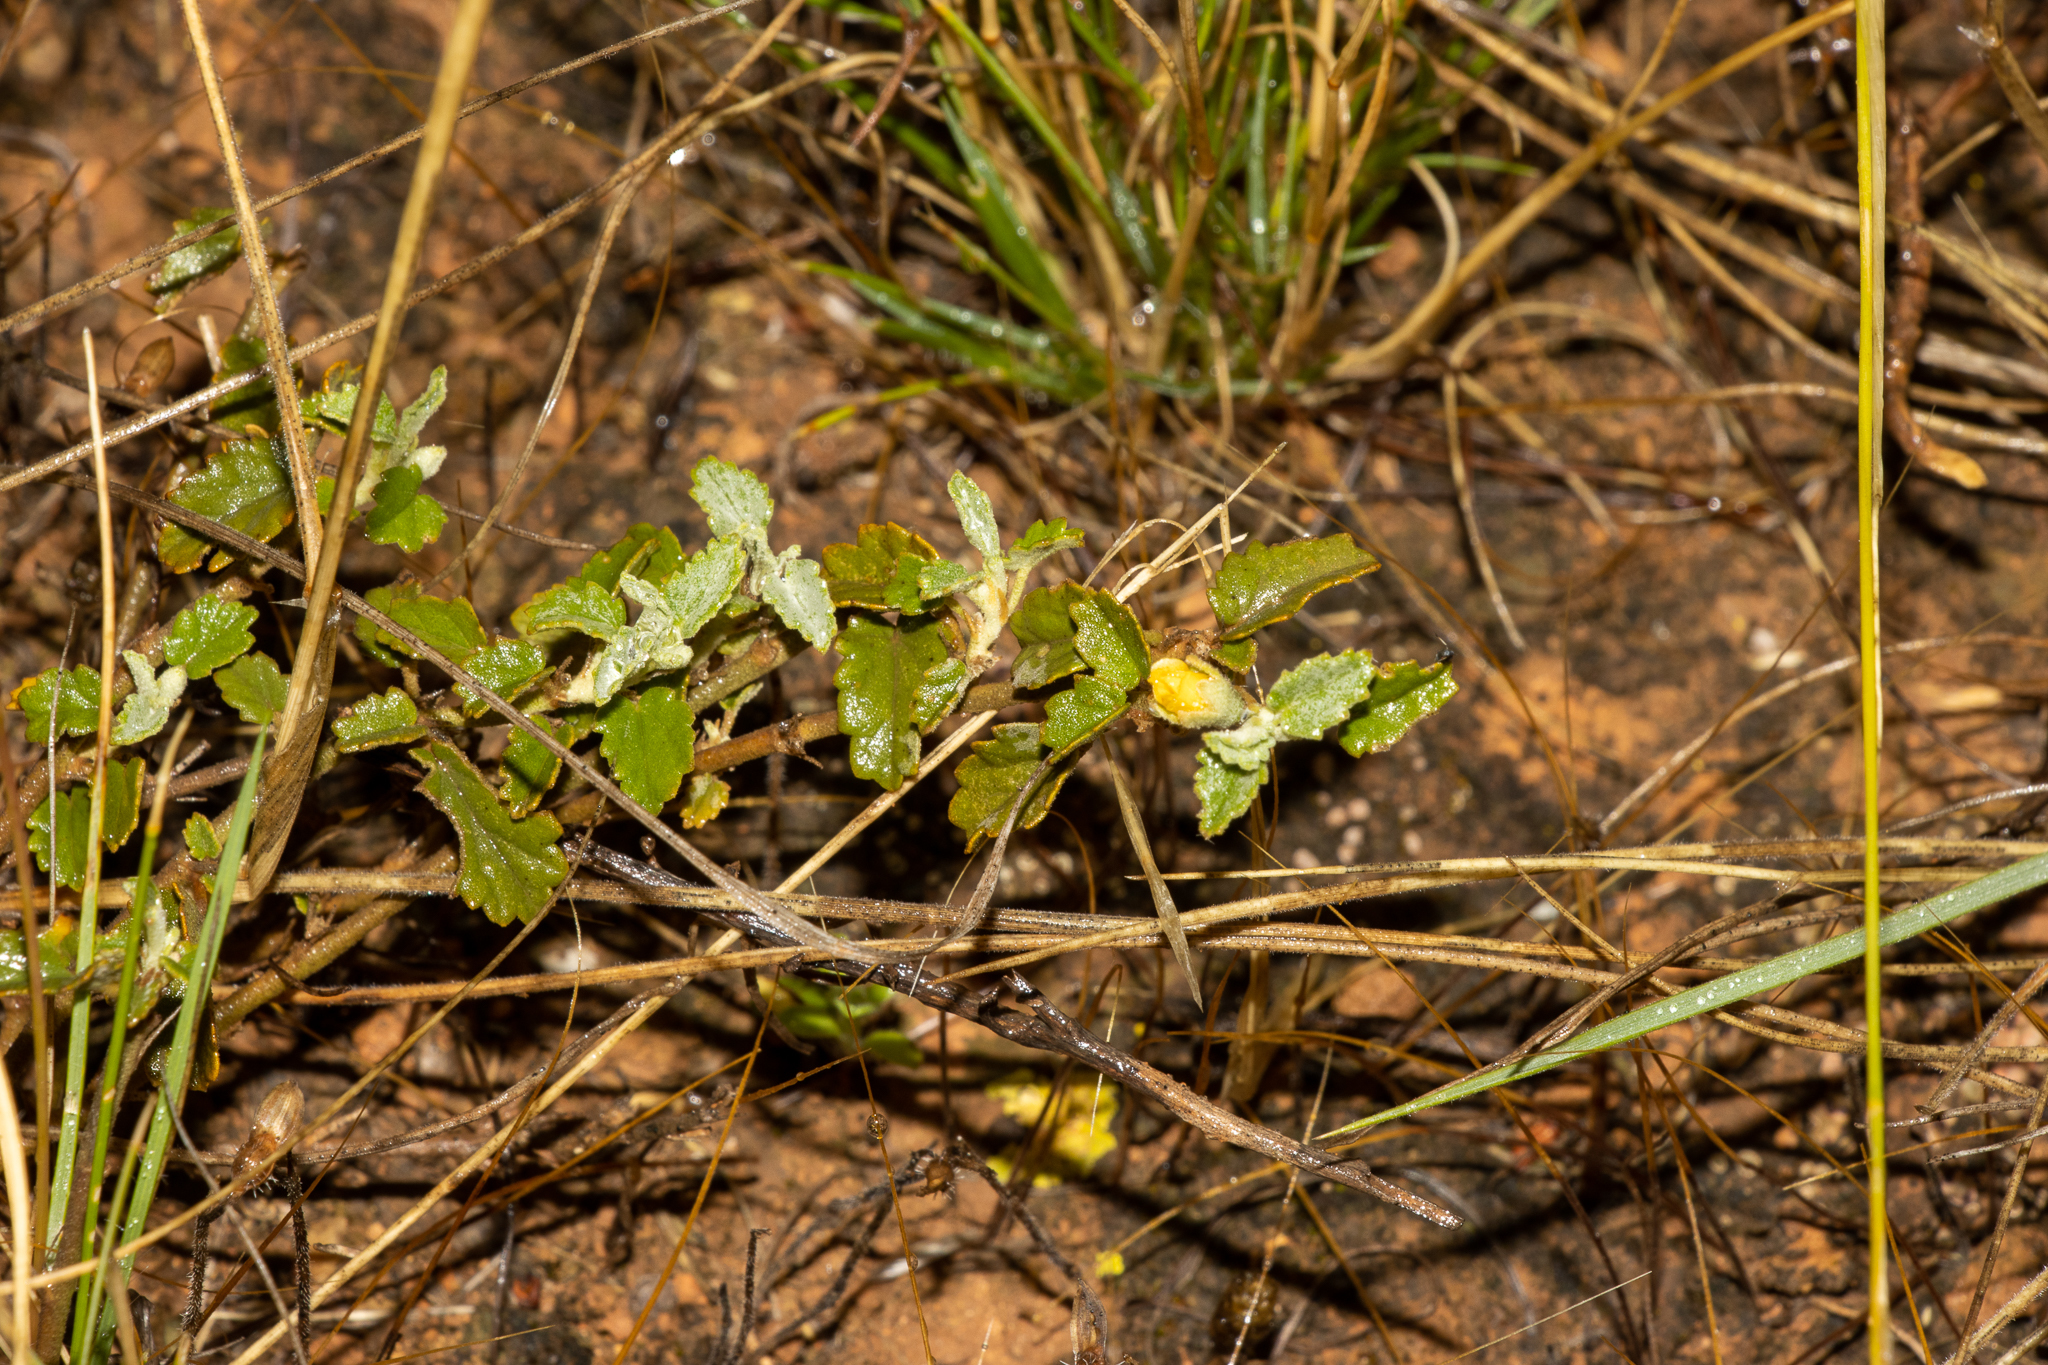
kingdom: Plantae
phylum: Tracheophyta
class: Magnoliopsida
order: Malvales
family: Malvaceae
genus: Sida
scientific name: Sida corrugata
